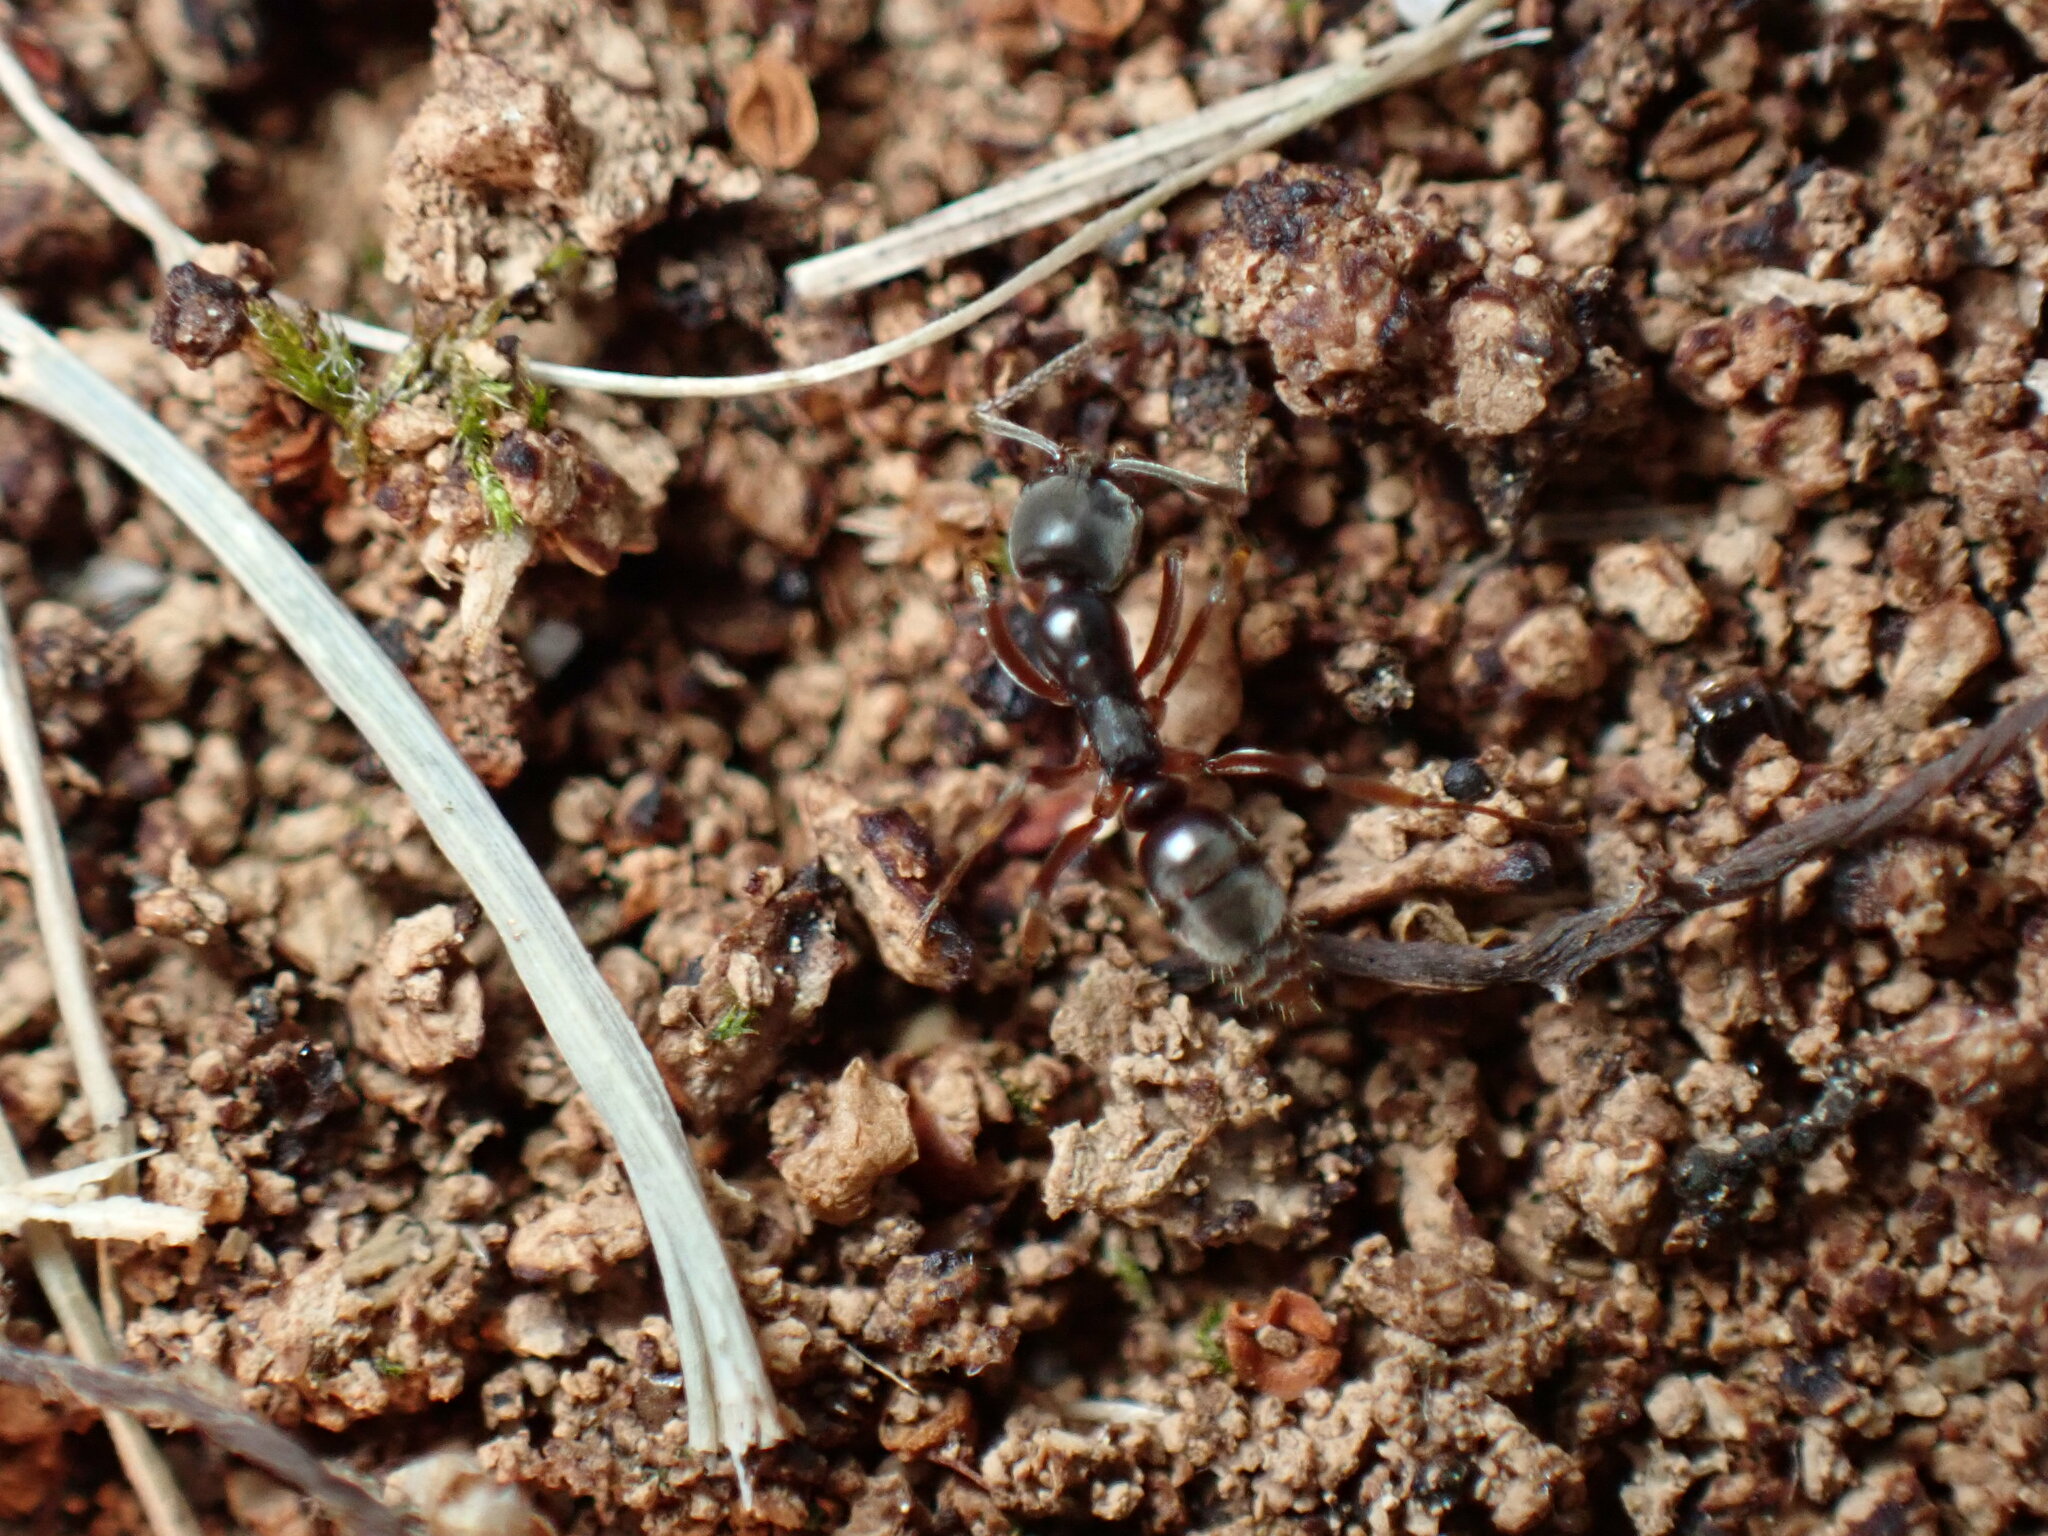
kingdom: Animalia
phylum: Arthropoda
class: Insecta
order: Hymenoptera
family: Formicidae
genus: Pachycondyla
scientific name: Pachycondyla chinensis
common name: Asian needle ant
